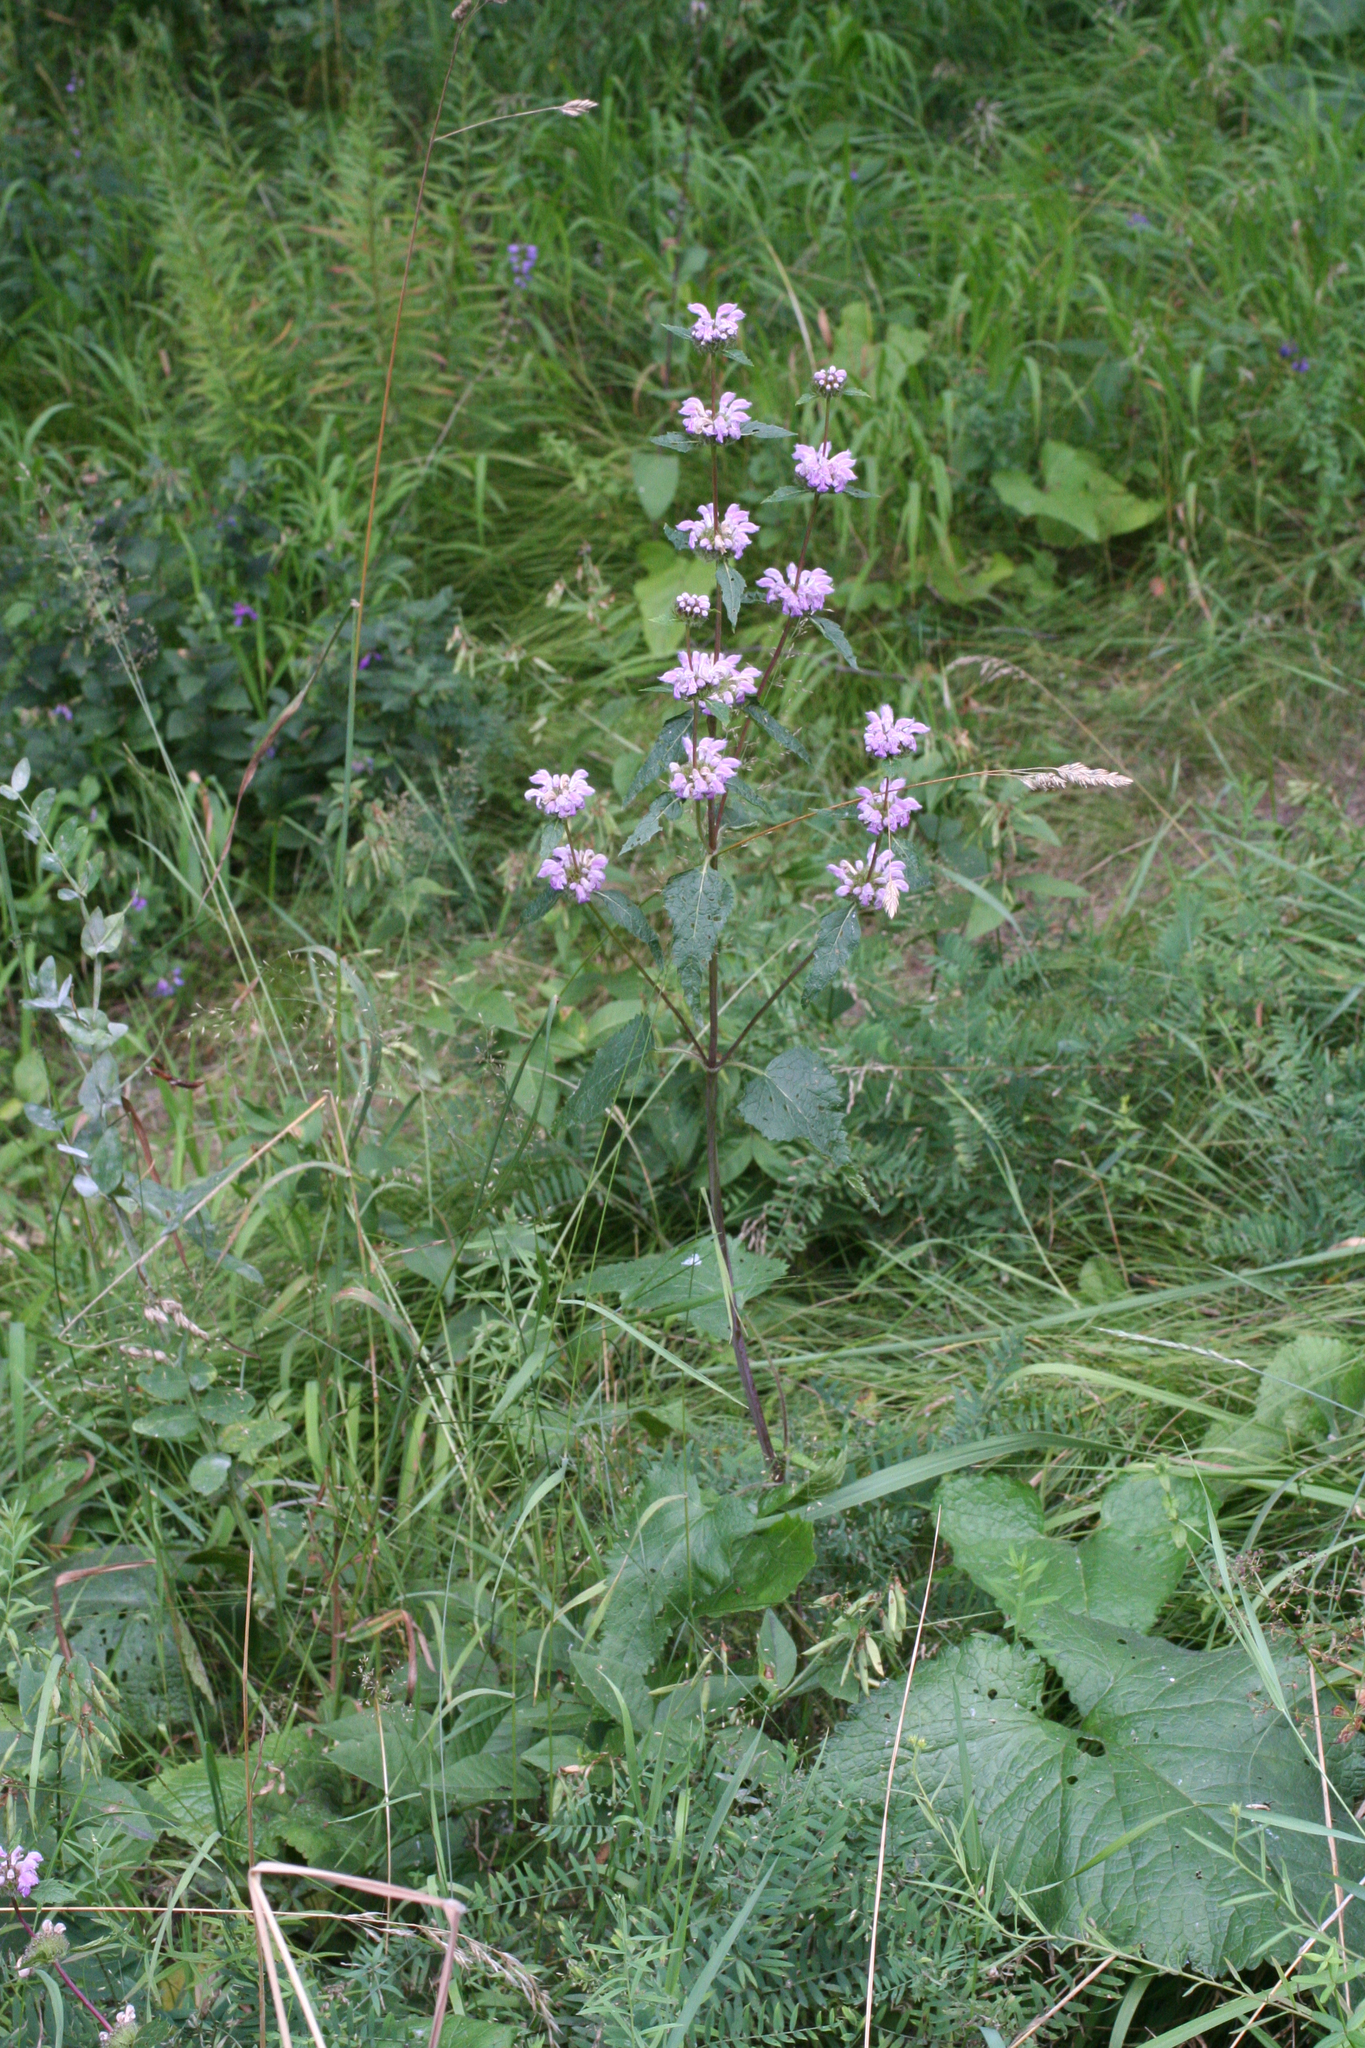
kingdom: Plantae
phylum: Tracheophyta
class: Magnoliopsida
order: Lamiales
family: Lamiaceae
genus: Phlomoides
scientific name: Phlomoides tuberosa
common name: Tuberous jerusalem sage
